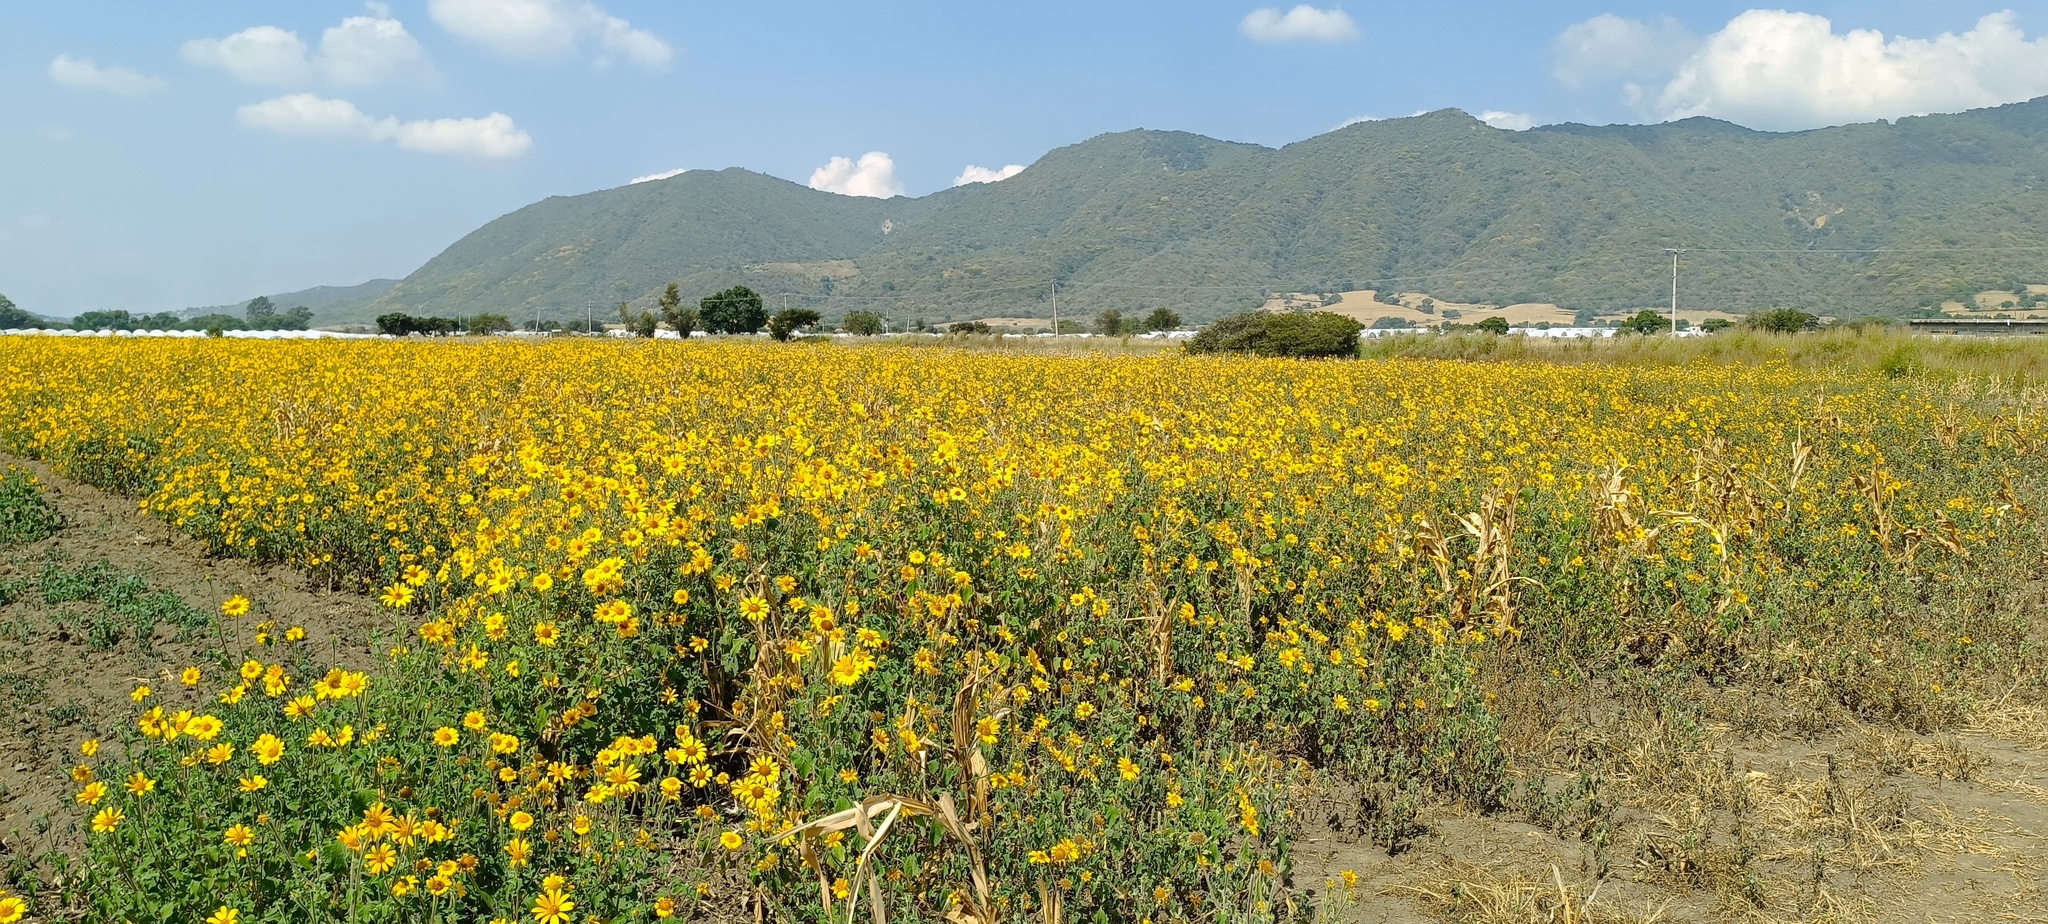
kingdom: Plantae
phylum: Tracheophyta
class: Magnoliopsida
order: Asterales
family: Asteraceae
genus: Tithonia
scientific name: Tithonia tubaeformis
